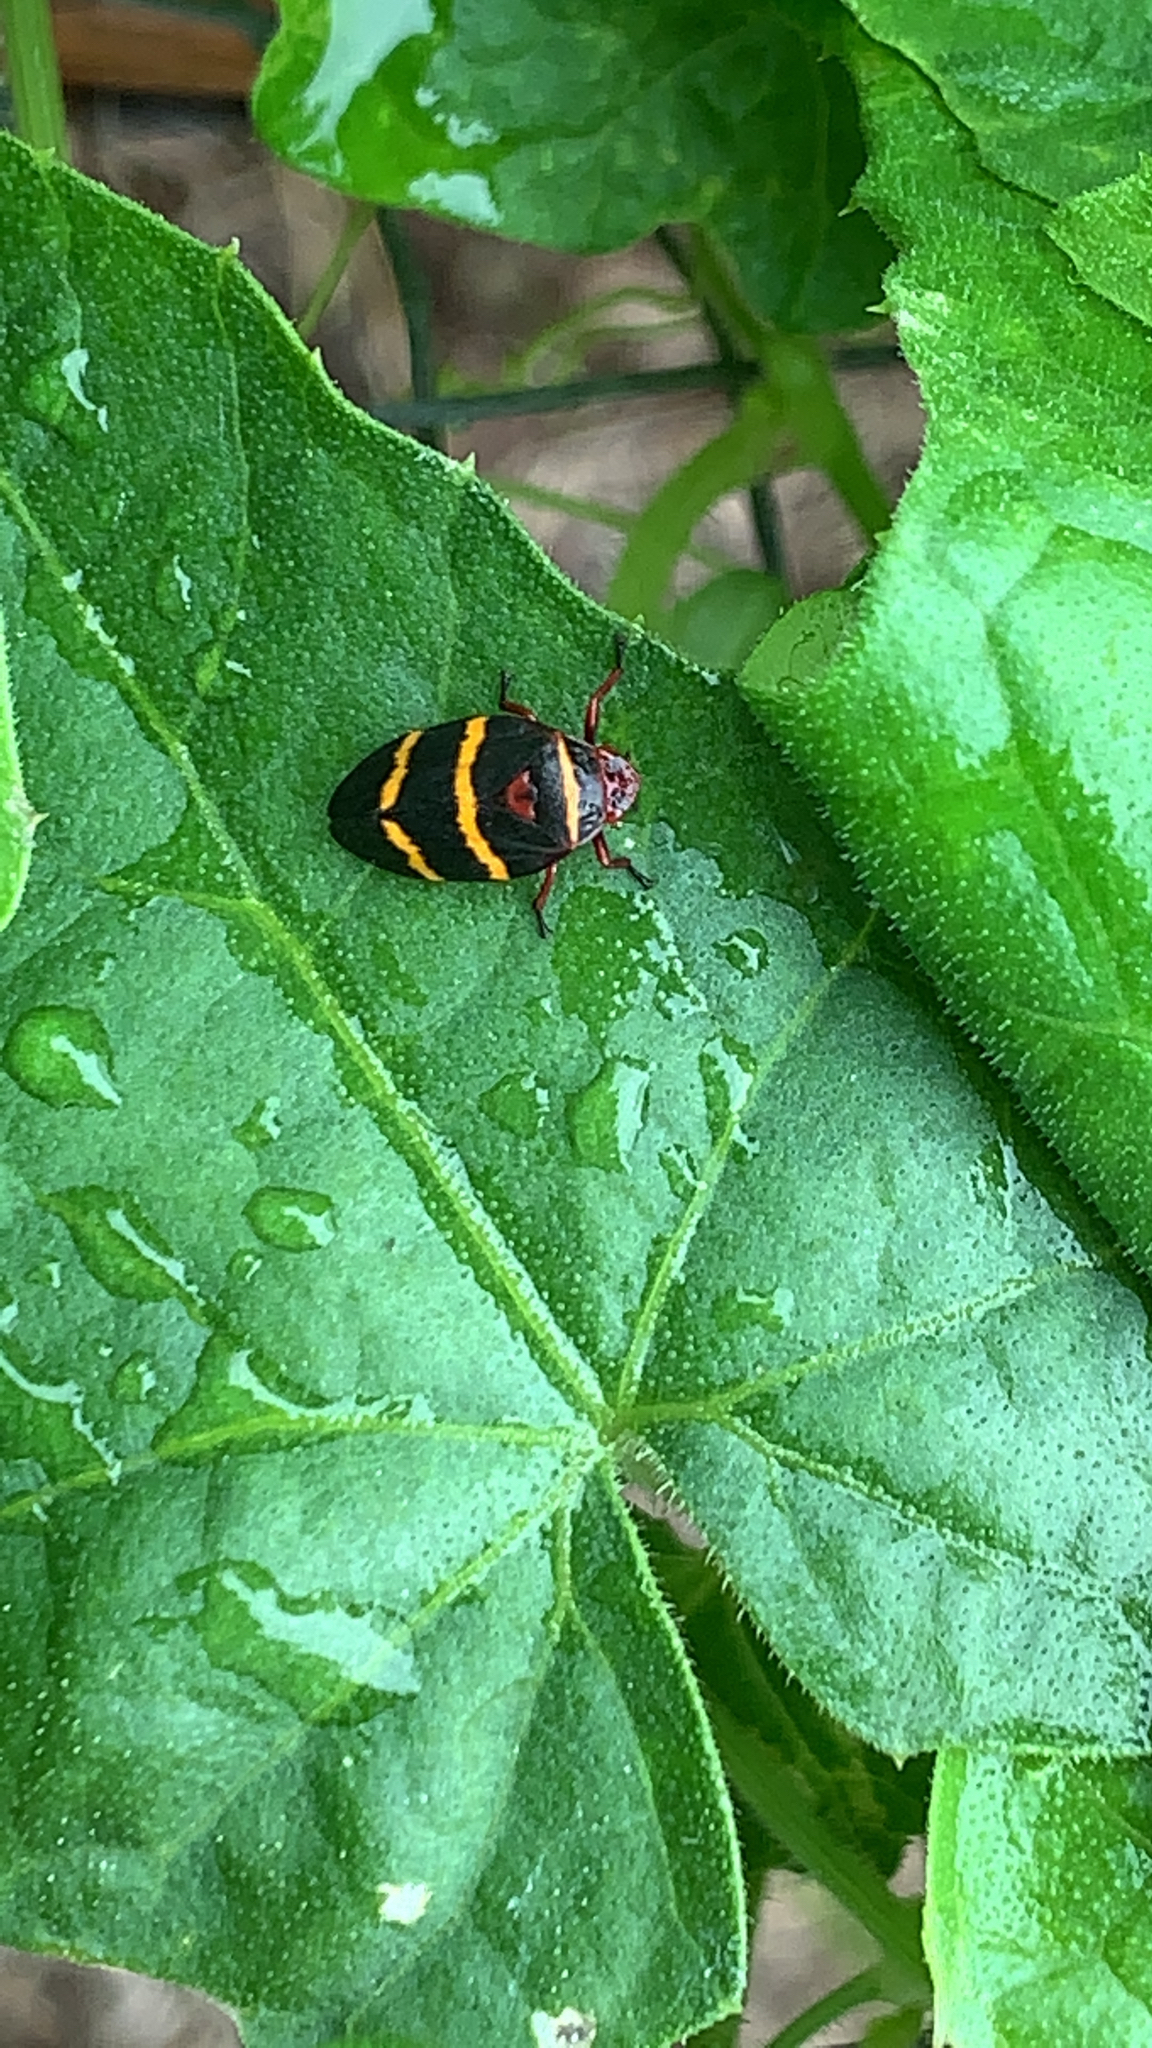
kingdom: Animalia
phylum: Arthropoda
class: Insecta
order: Hemiptera
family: Cercopidae
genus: Prosapia
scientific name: Prosapia bicincta
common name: Twolined spittlebug
